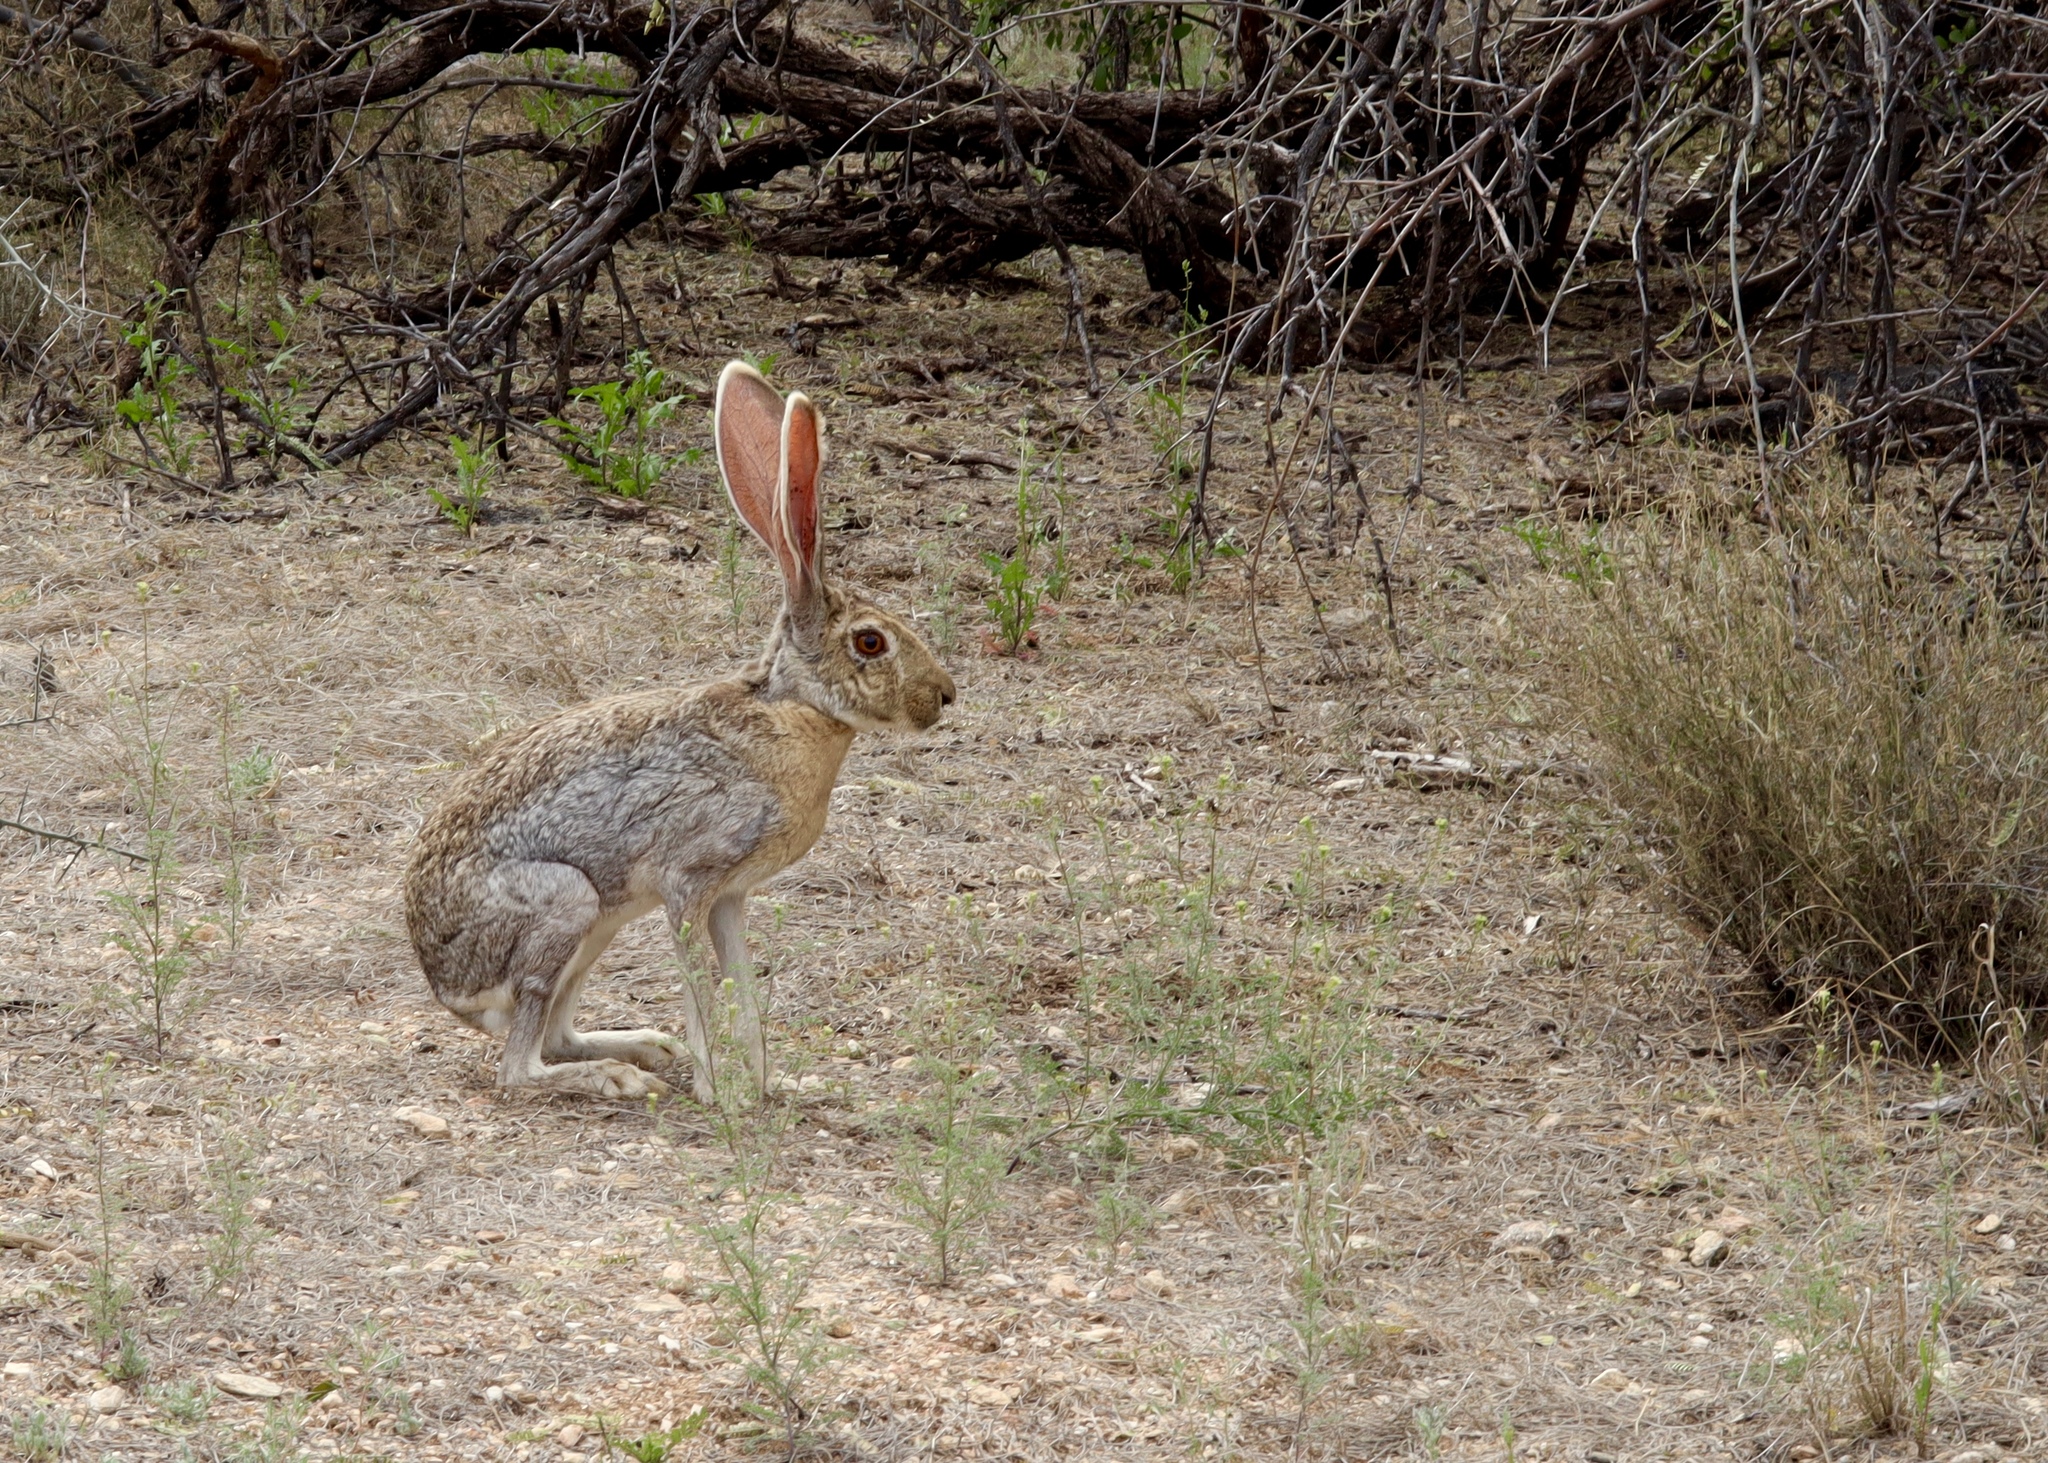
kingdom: Animalia
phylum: Chordata
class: Mammalia
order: Lagomorpha
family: Leporidae
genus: Lepus
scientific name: Lepus alleni
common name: Antelope jackrabbit
